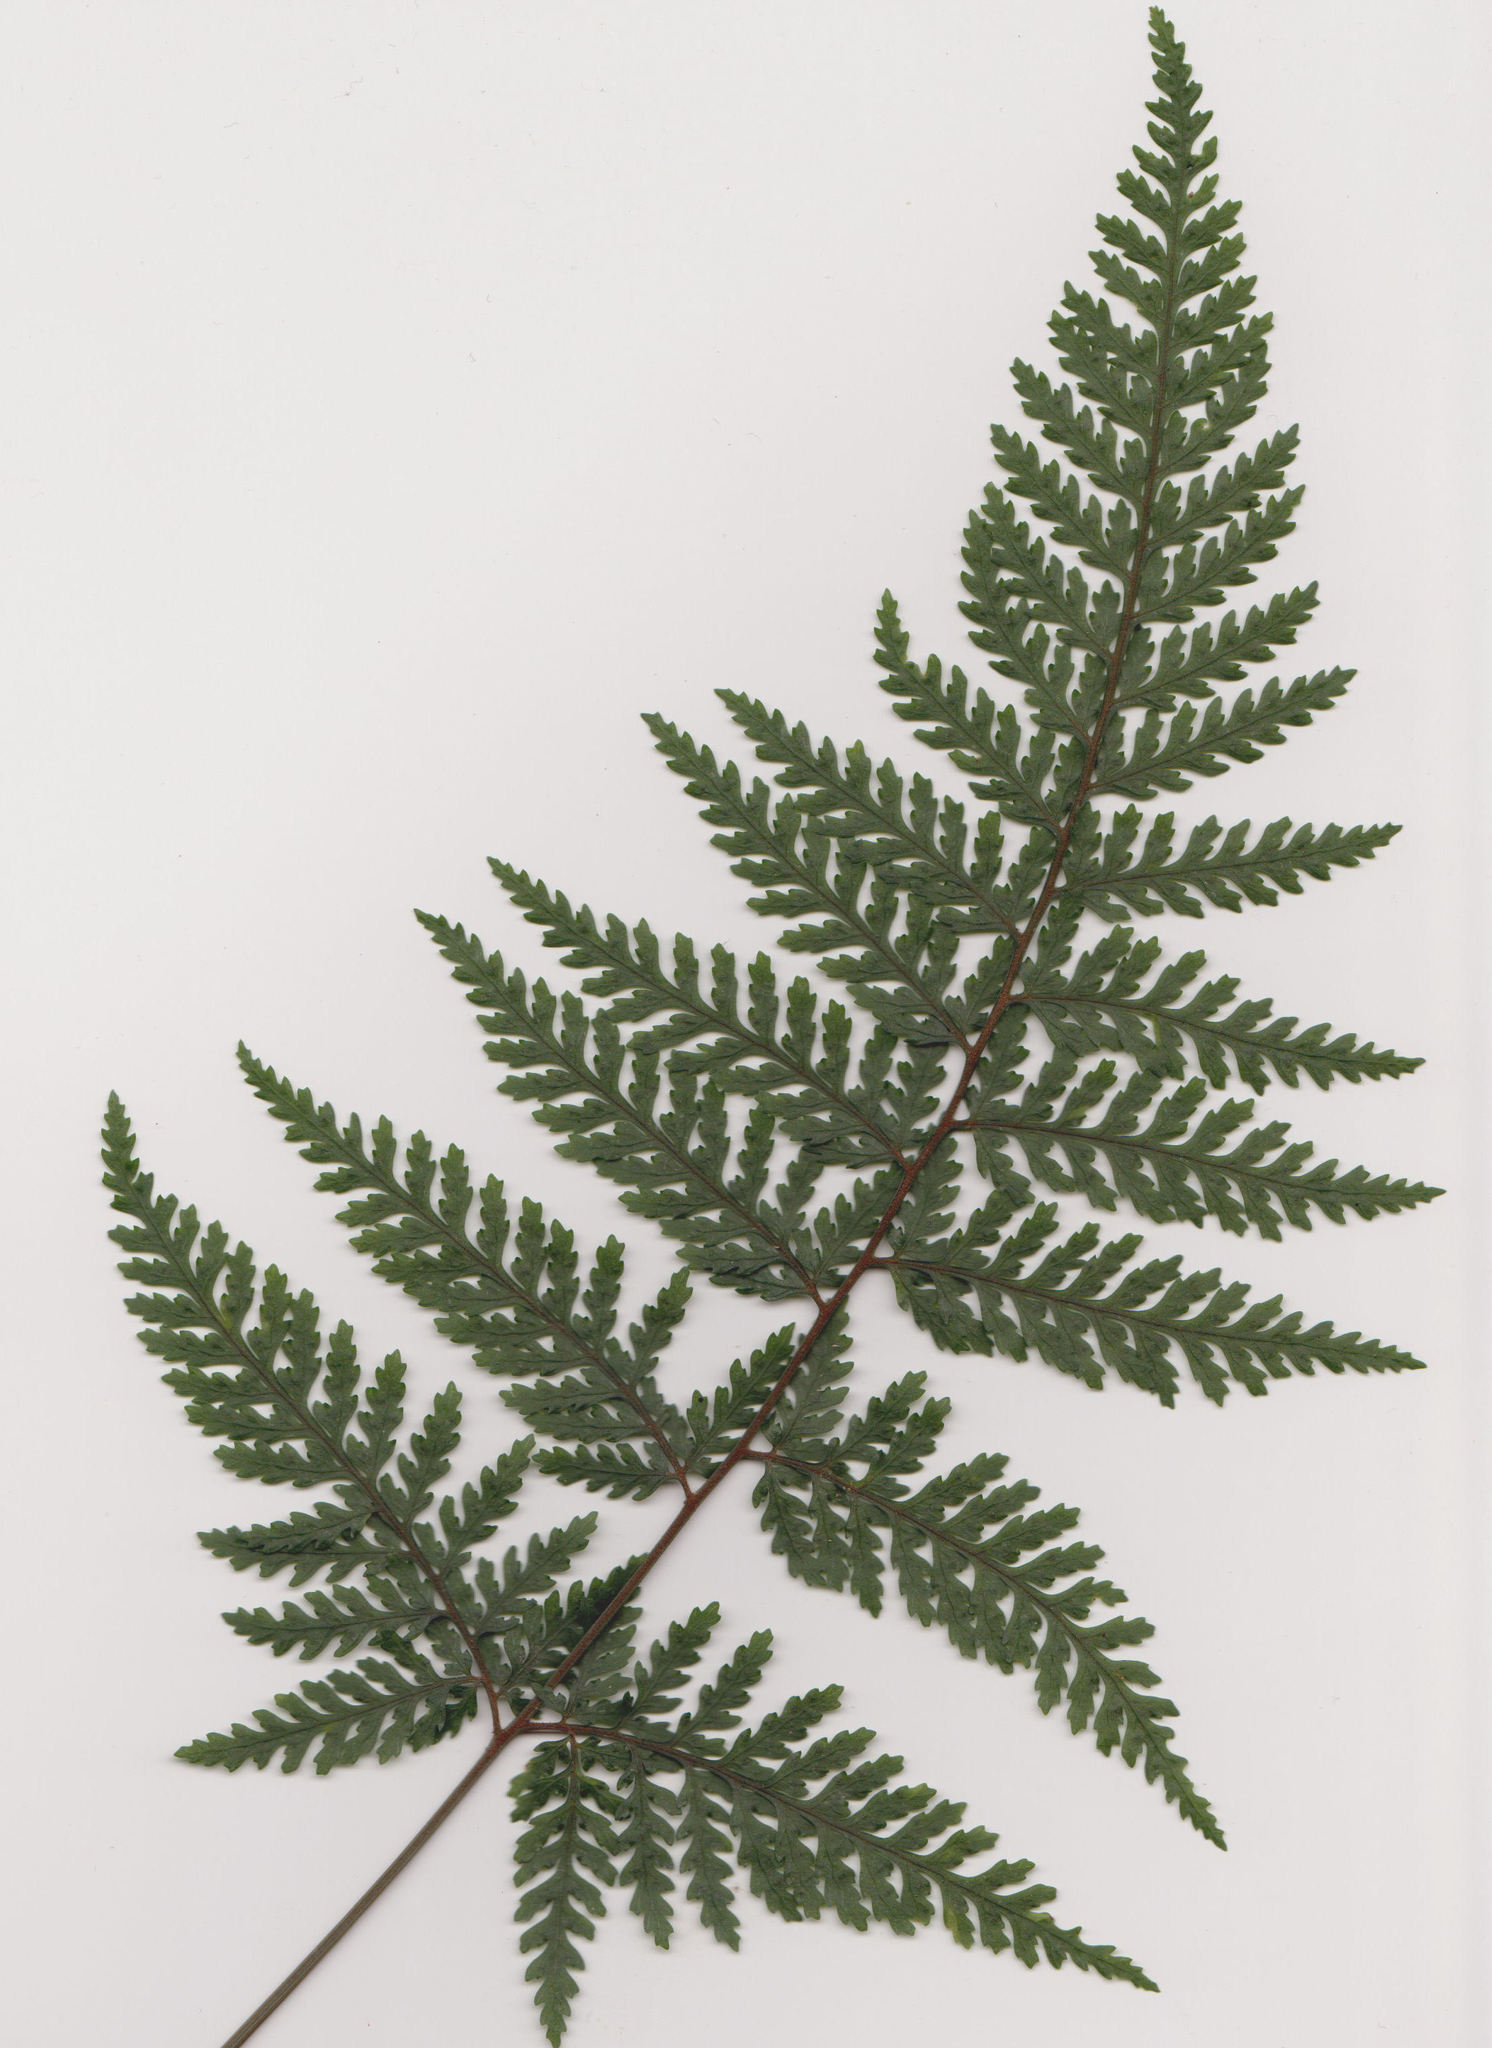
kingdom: Plantae
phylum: Tracheophyta
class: Polypodiopsida
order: Polypodiales
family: Dryopteridaceae
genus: Parapolystichum
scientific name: Parapolystichum glabellum
